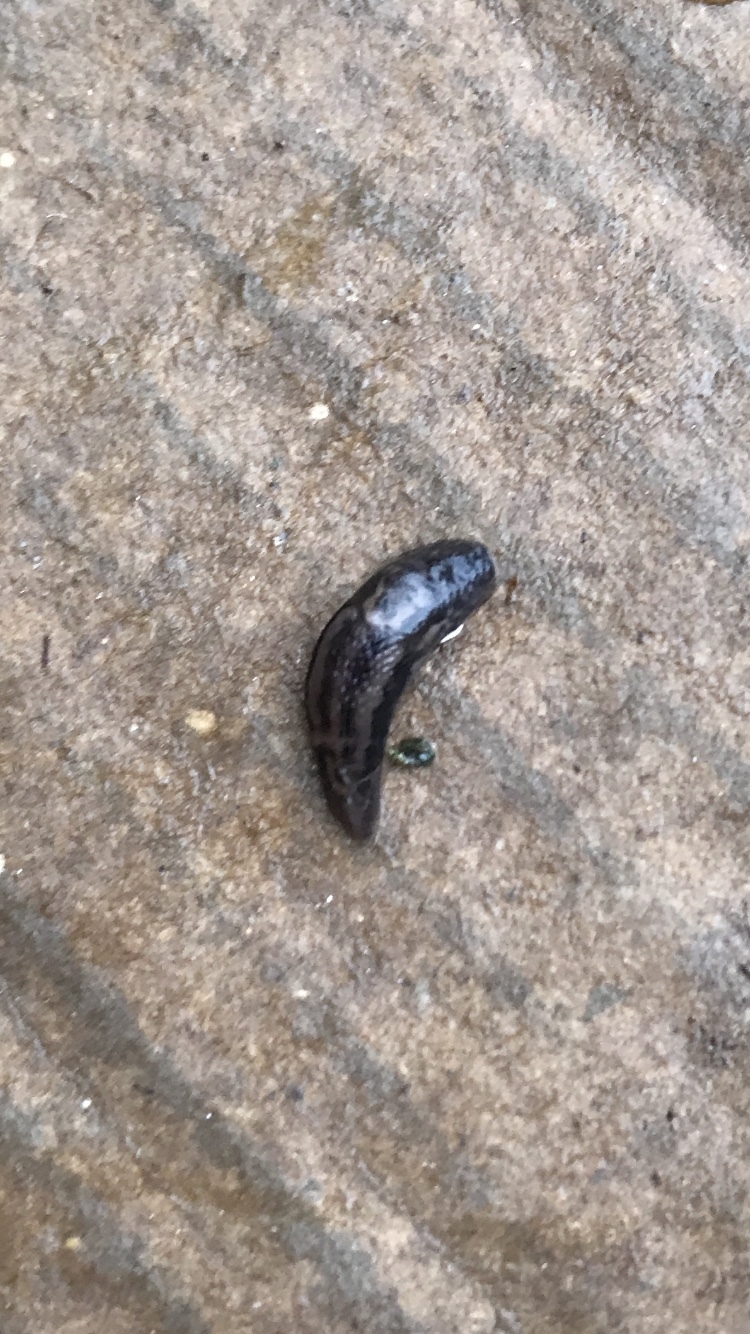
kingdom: Animalia
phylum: Mollusca
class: Gastropoda
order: Stylommatophora
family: Limacidae
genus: Limax
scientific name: Limax maximus
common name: Great grey slug
